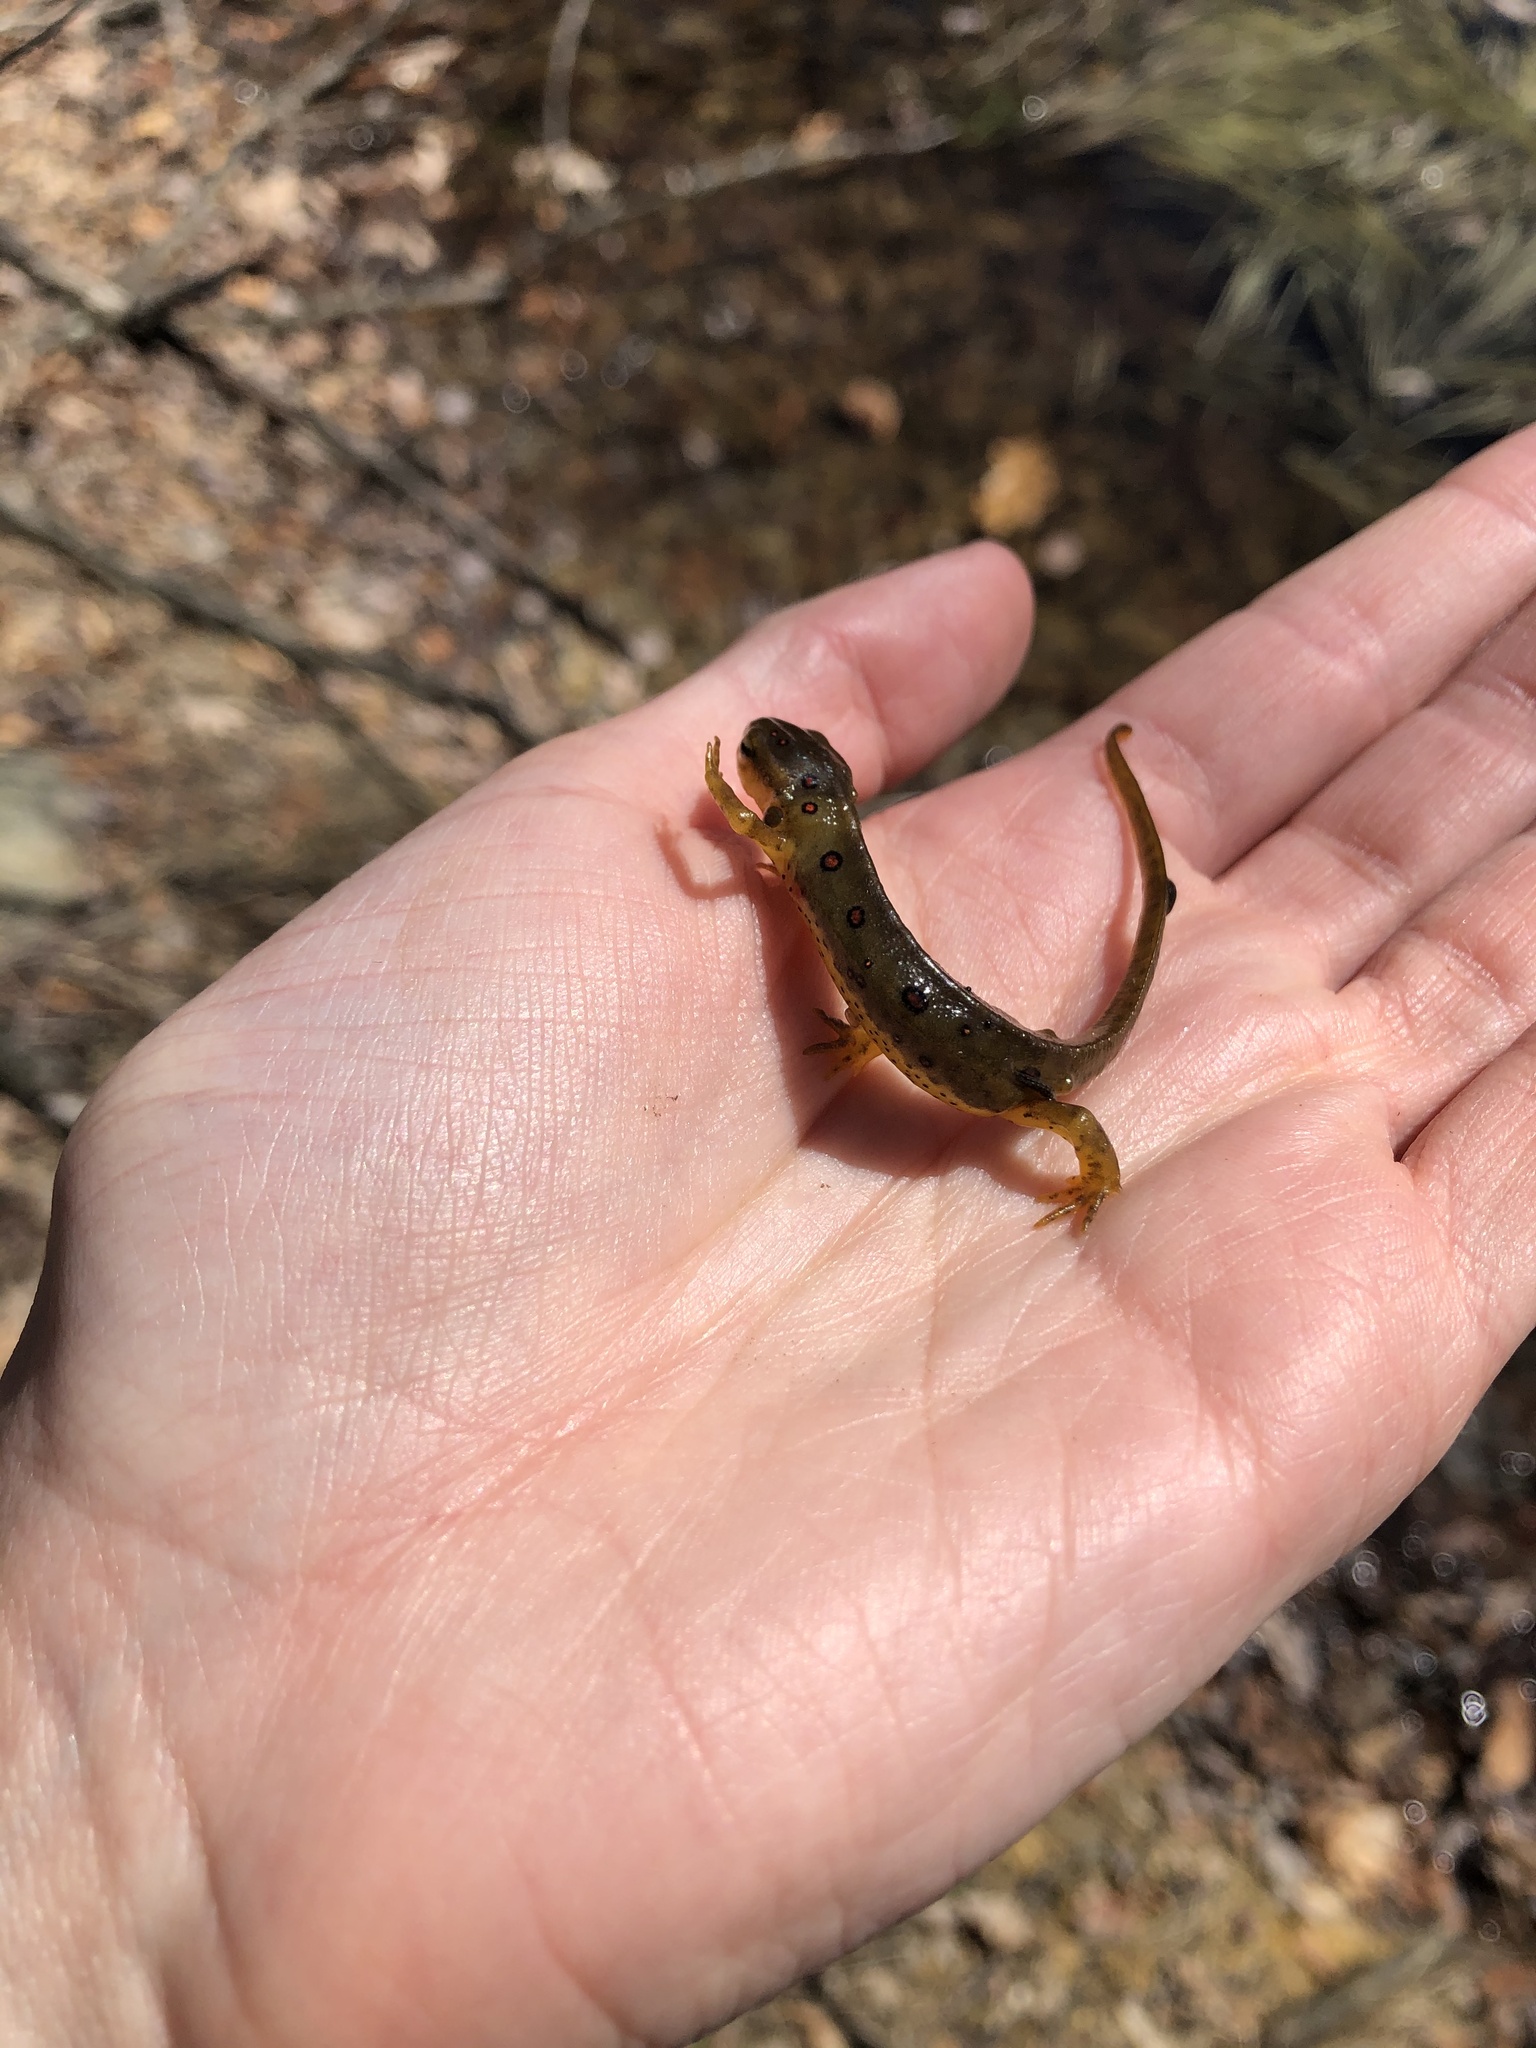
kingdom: Animalia
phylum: Chordata
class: Amphibia
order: Caudata
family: Salamandridae
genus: Notophthalmus
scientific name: Notophthalmus viridescens
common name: Eastern newt
